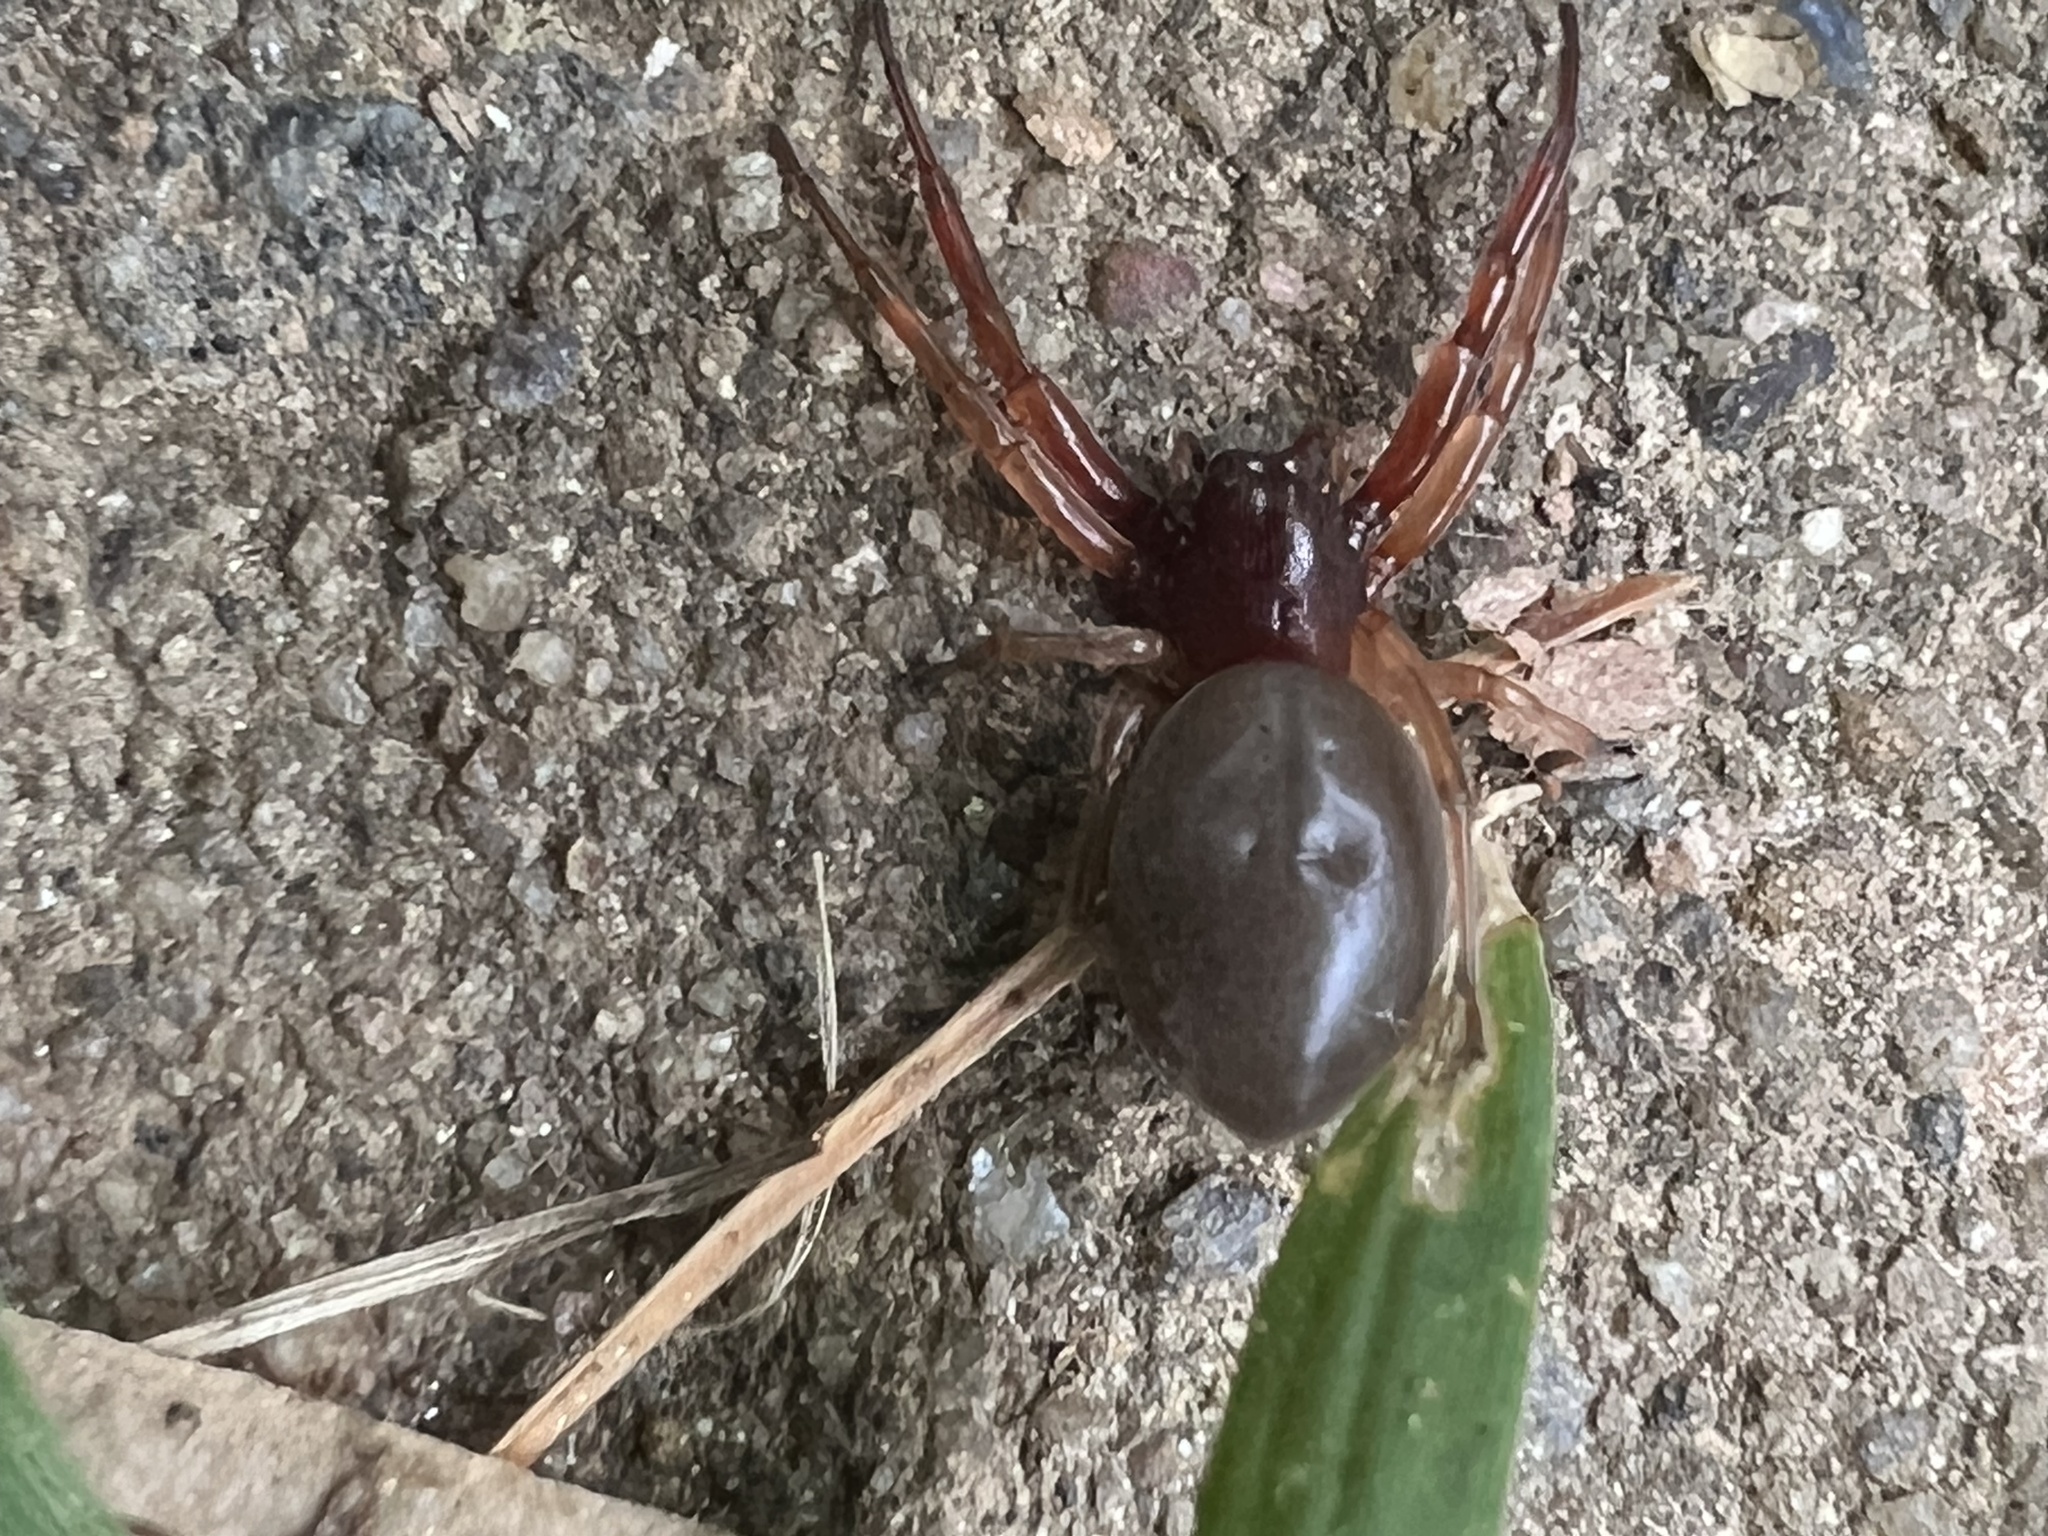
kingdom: Animalia
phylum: Arthropoda
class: Arachnida
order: Araneae
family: Trachelidae
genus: Trachelas
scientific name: Trachelas tranquillus
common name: Broad-faced sac spider
